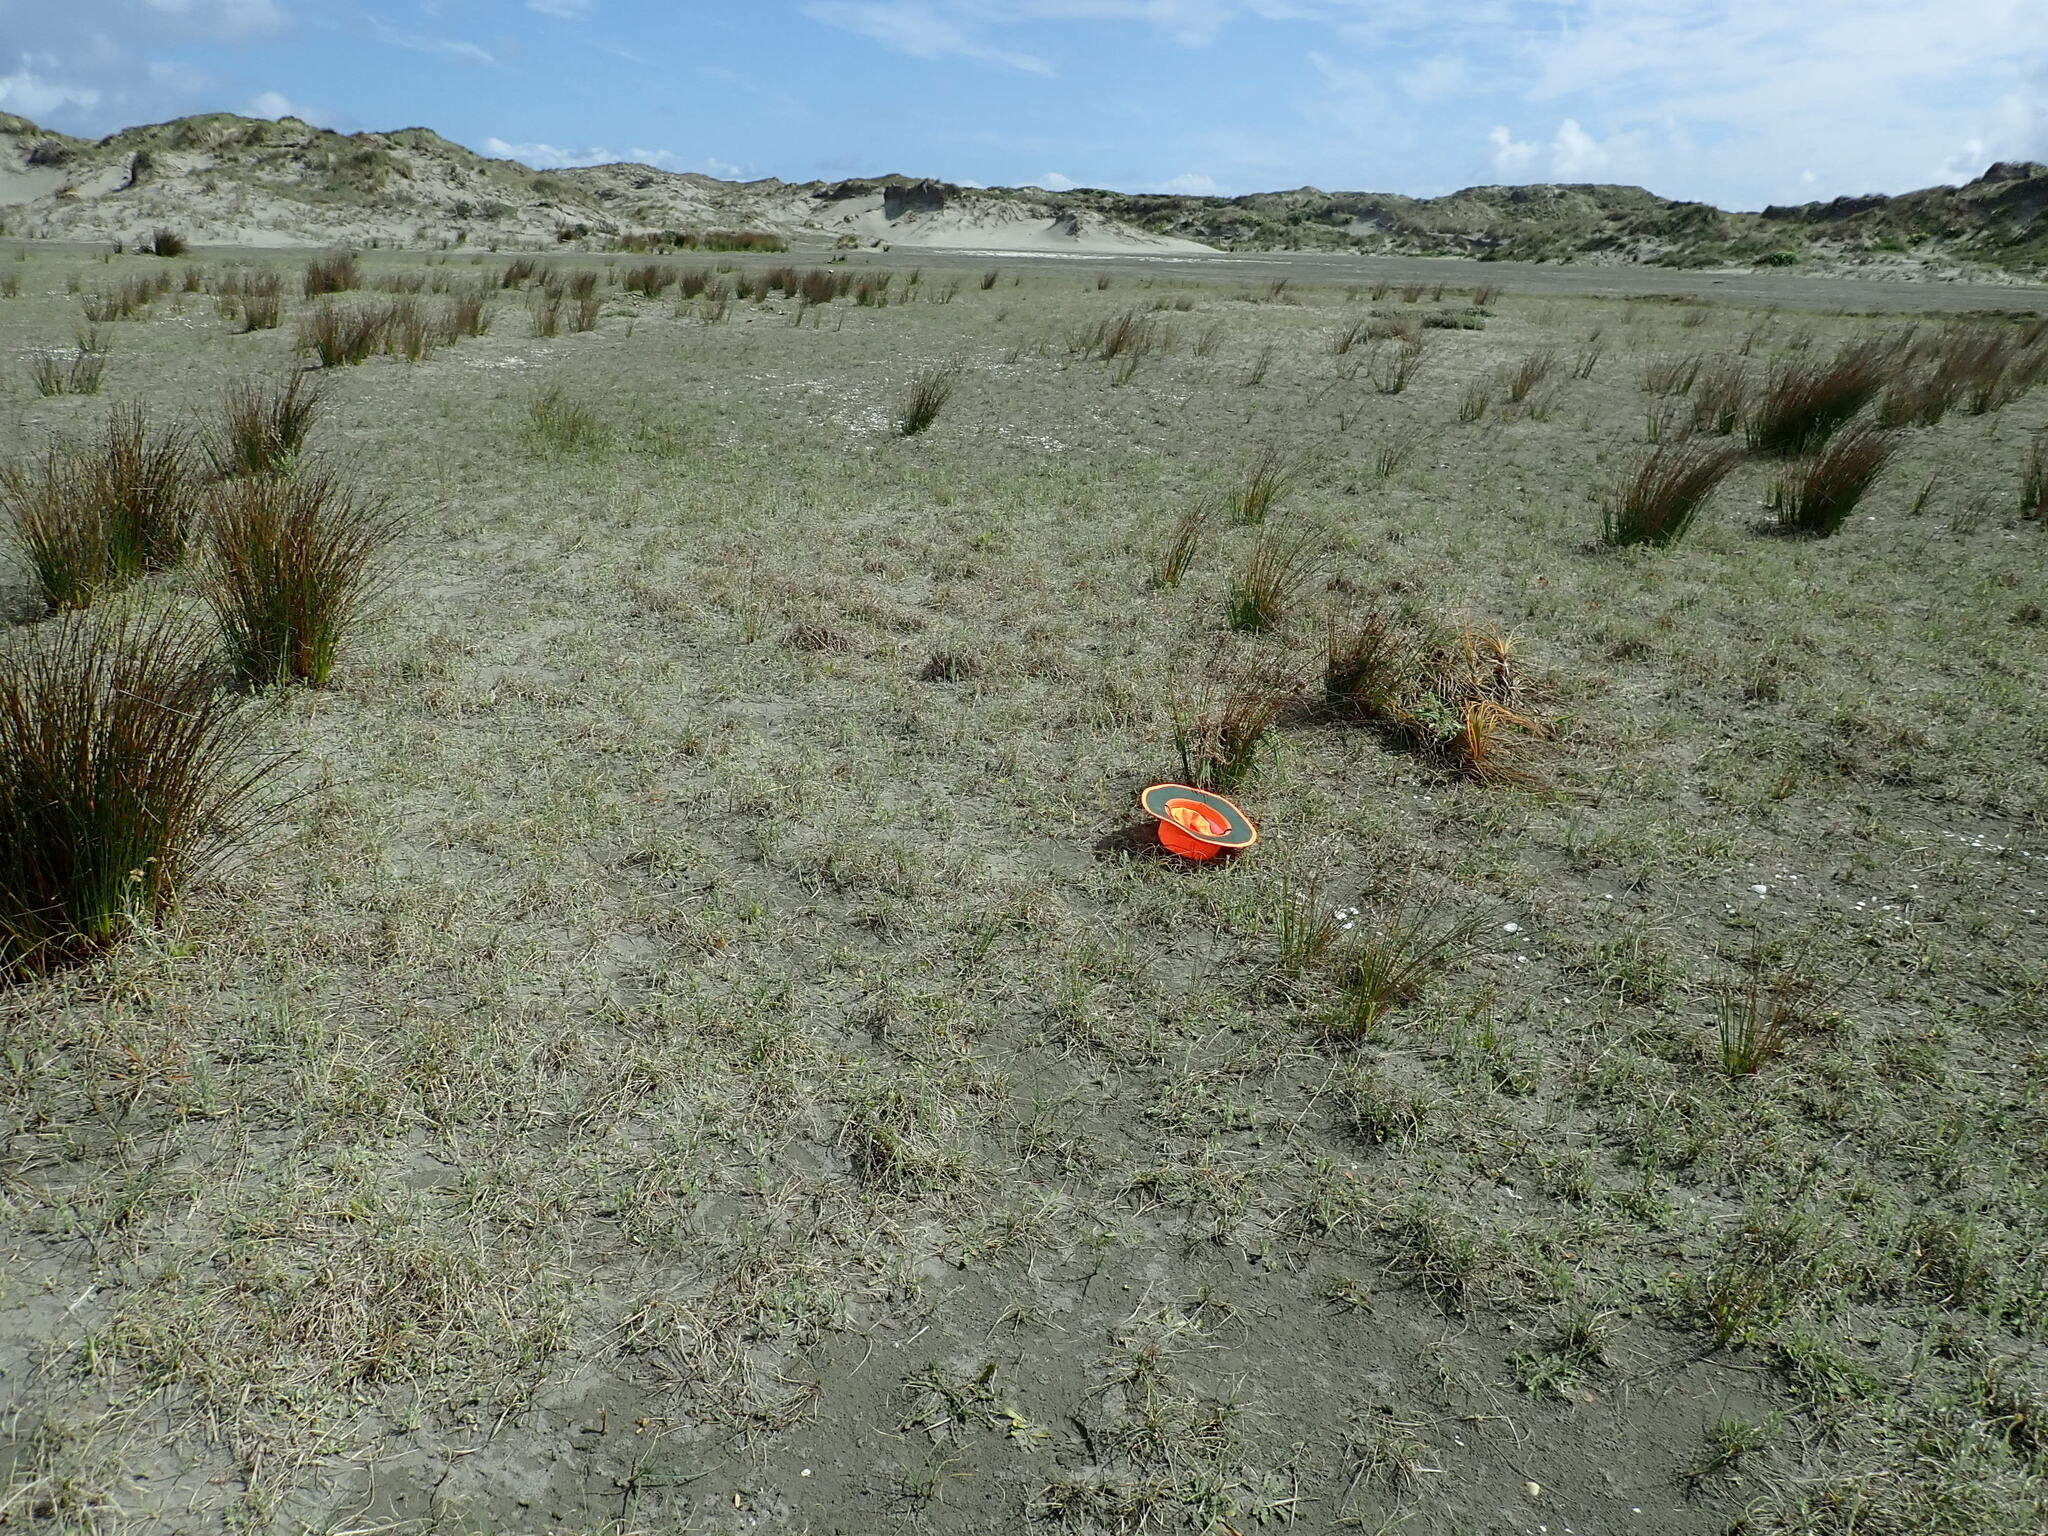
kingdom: Plantae
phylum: Tracheophyta
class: Liliopsida
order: Asparagales
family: Orchidaceae
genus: Microtis
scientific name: Microtis unifolia
